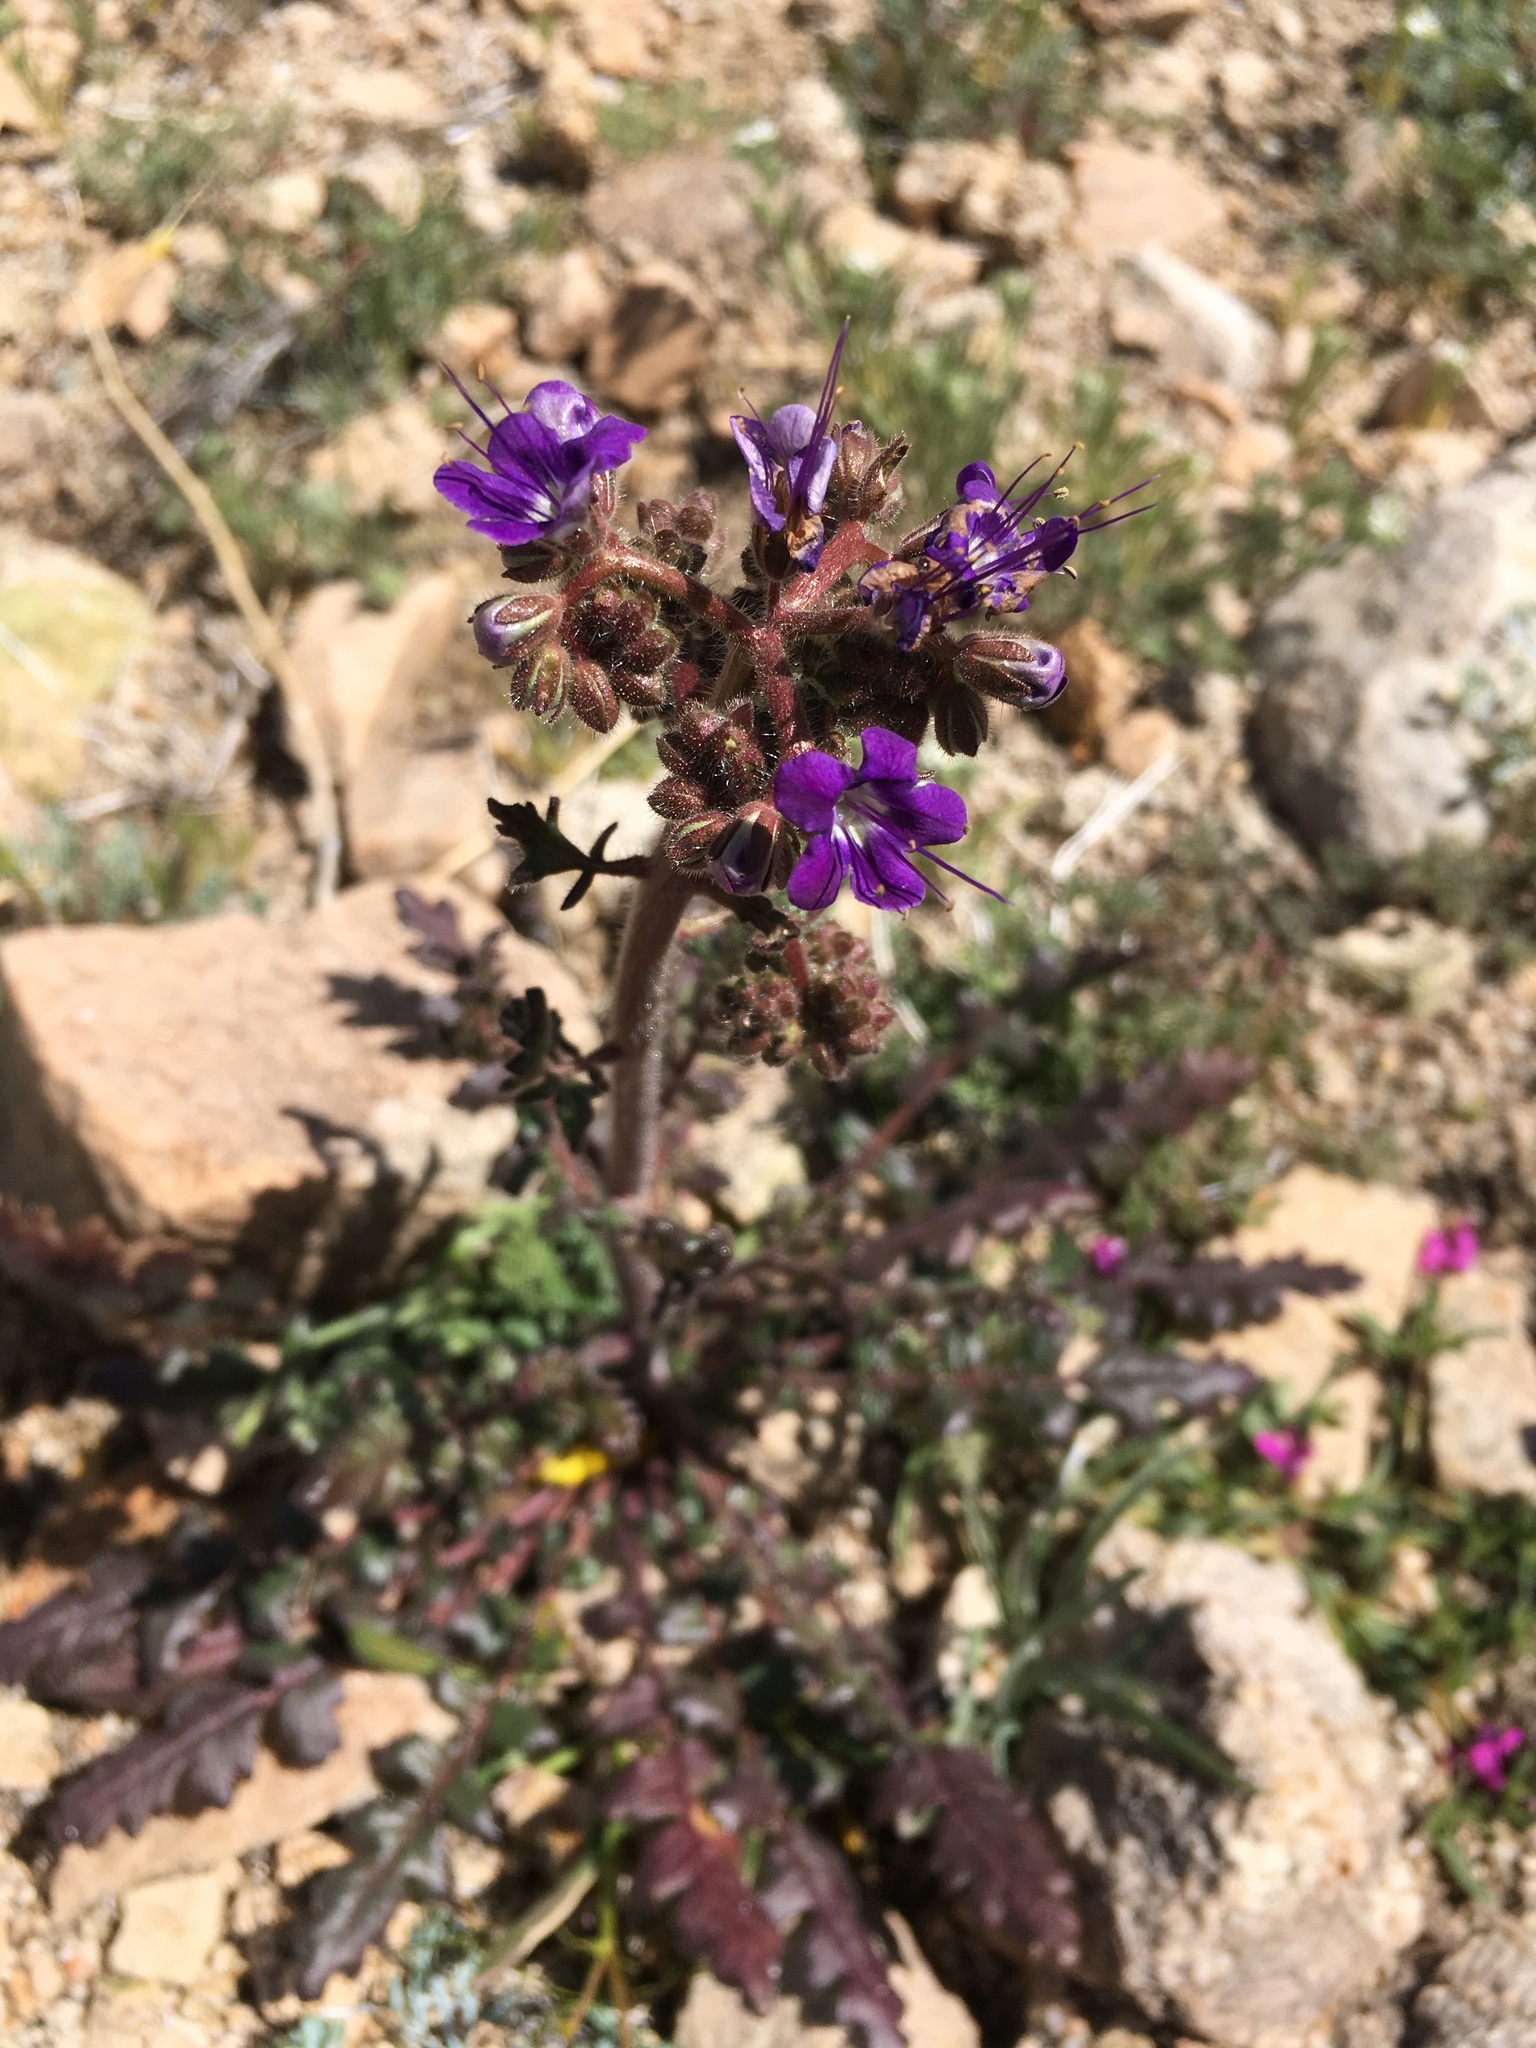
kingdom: Plantae
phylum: Tracheophyta
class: Magnoliopsida
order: Boraginales
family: Hydrophyllaceae
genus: Phacelia
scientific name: Phacelia crenulata
